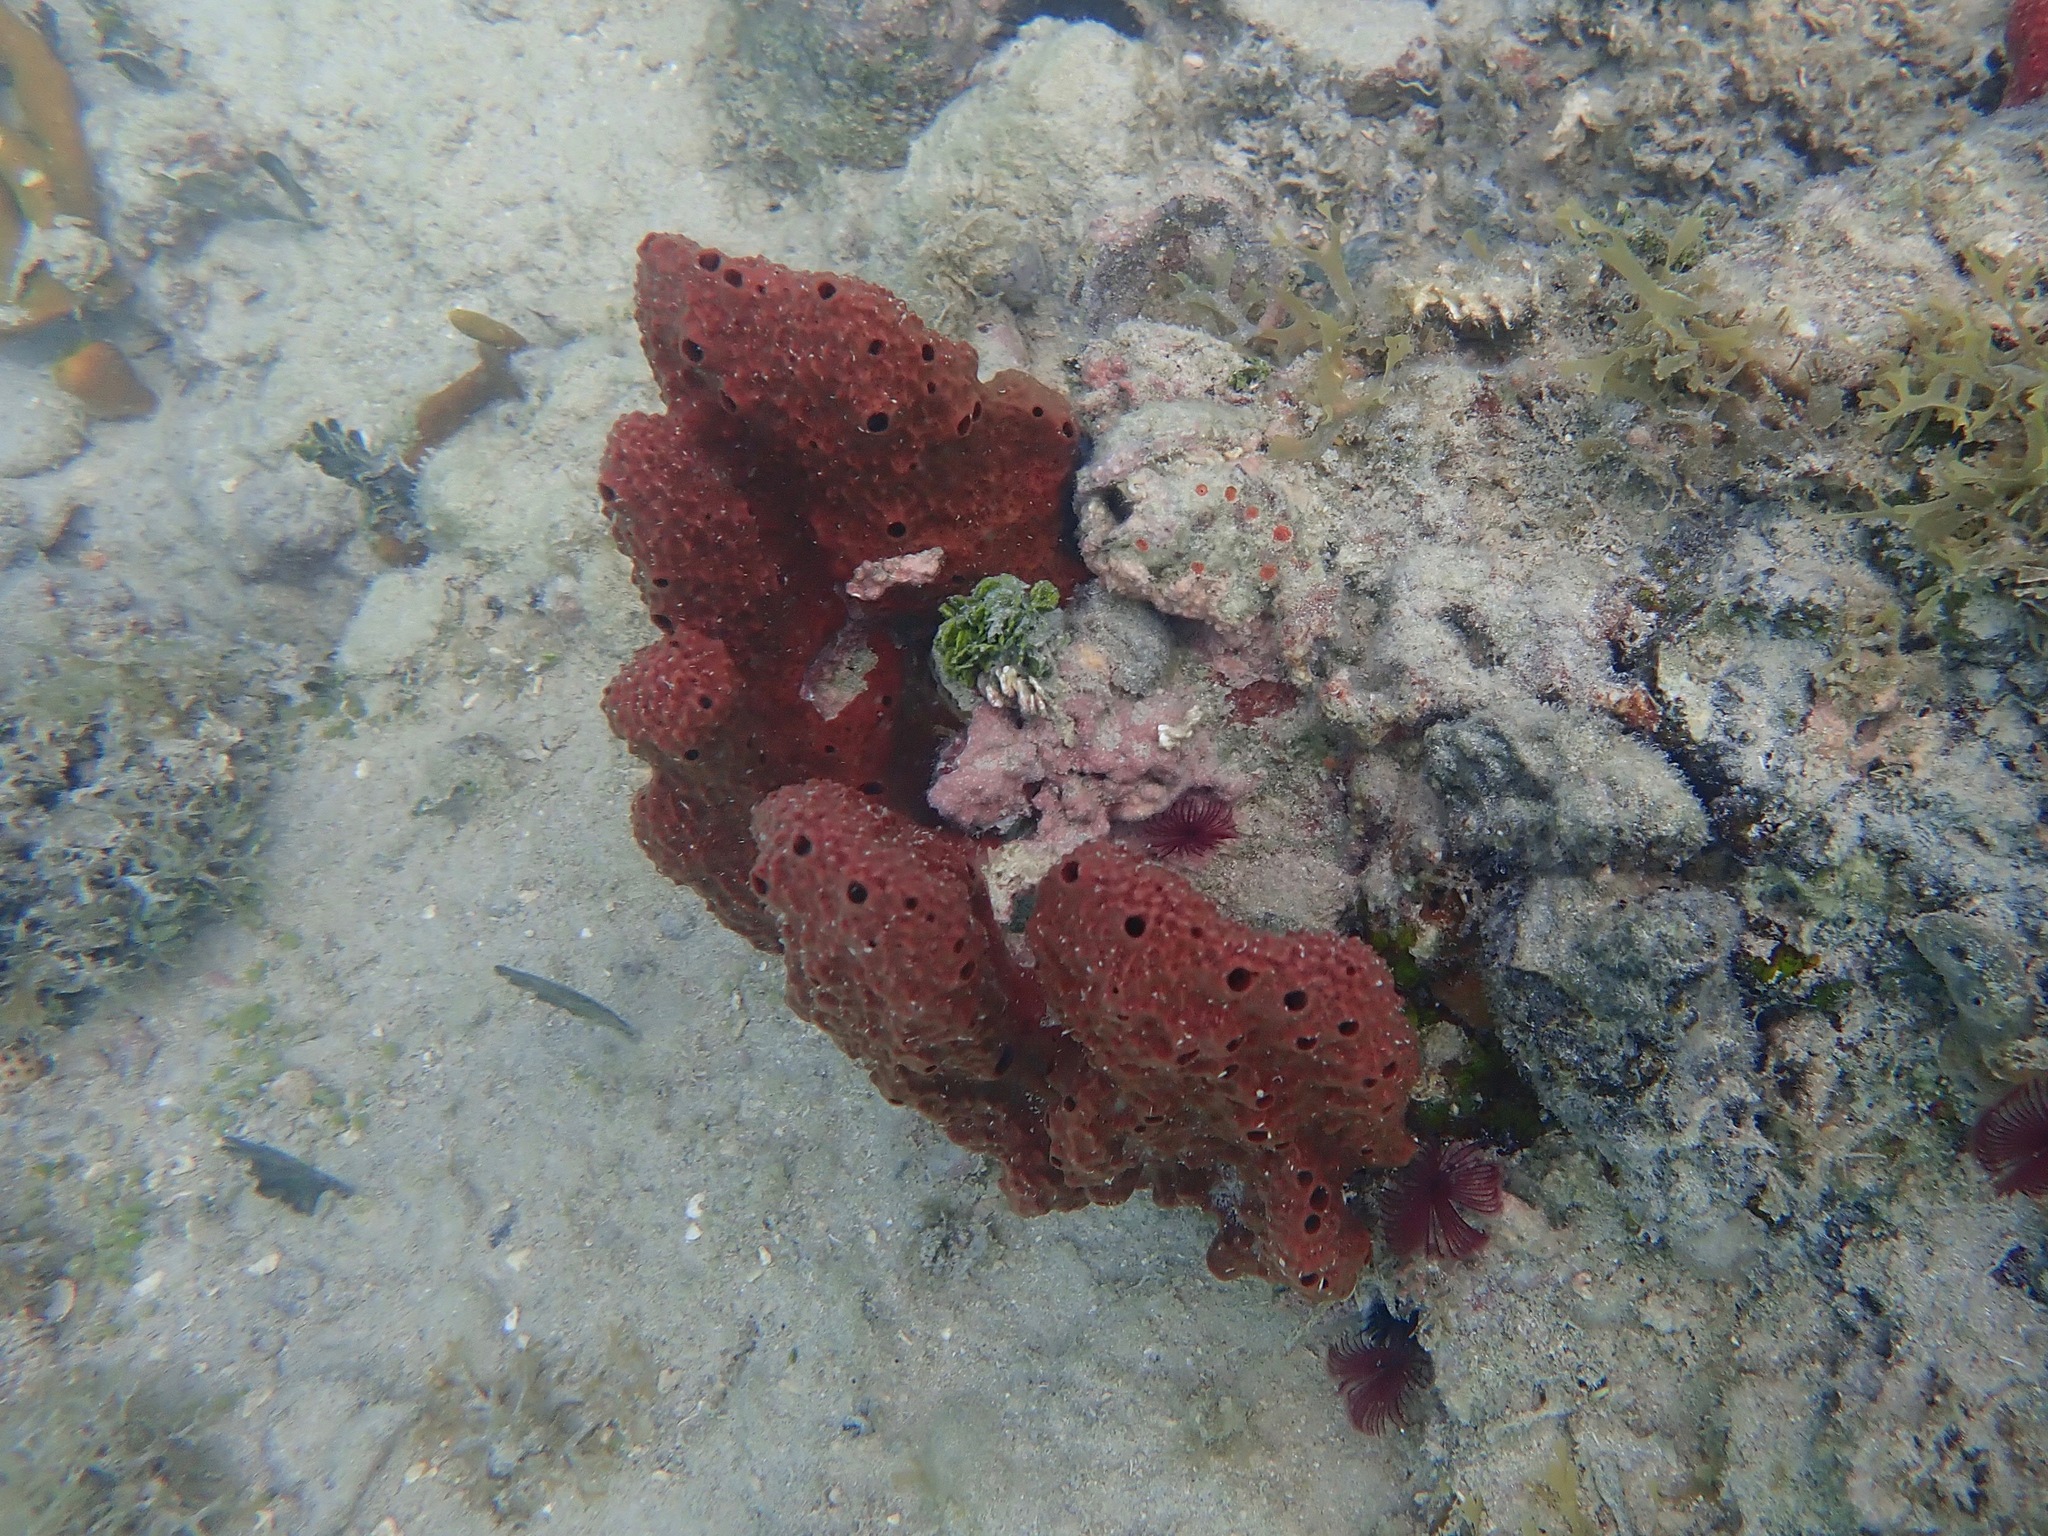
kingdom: Animalia
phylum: Porifera
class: Demospongiae
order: Haplosclerida
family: Niphatidae
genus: Amphimedon
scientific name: Amphimedon compressa
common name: Red sponge
